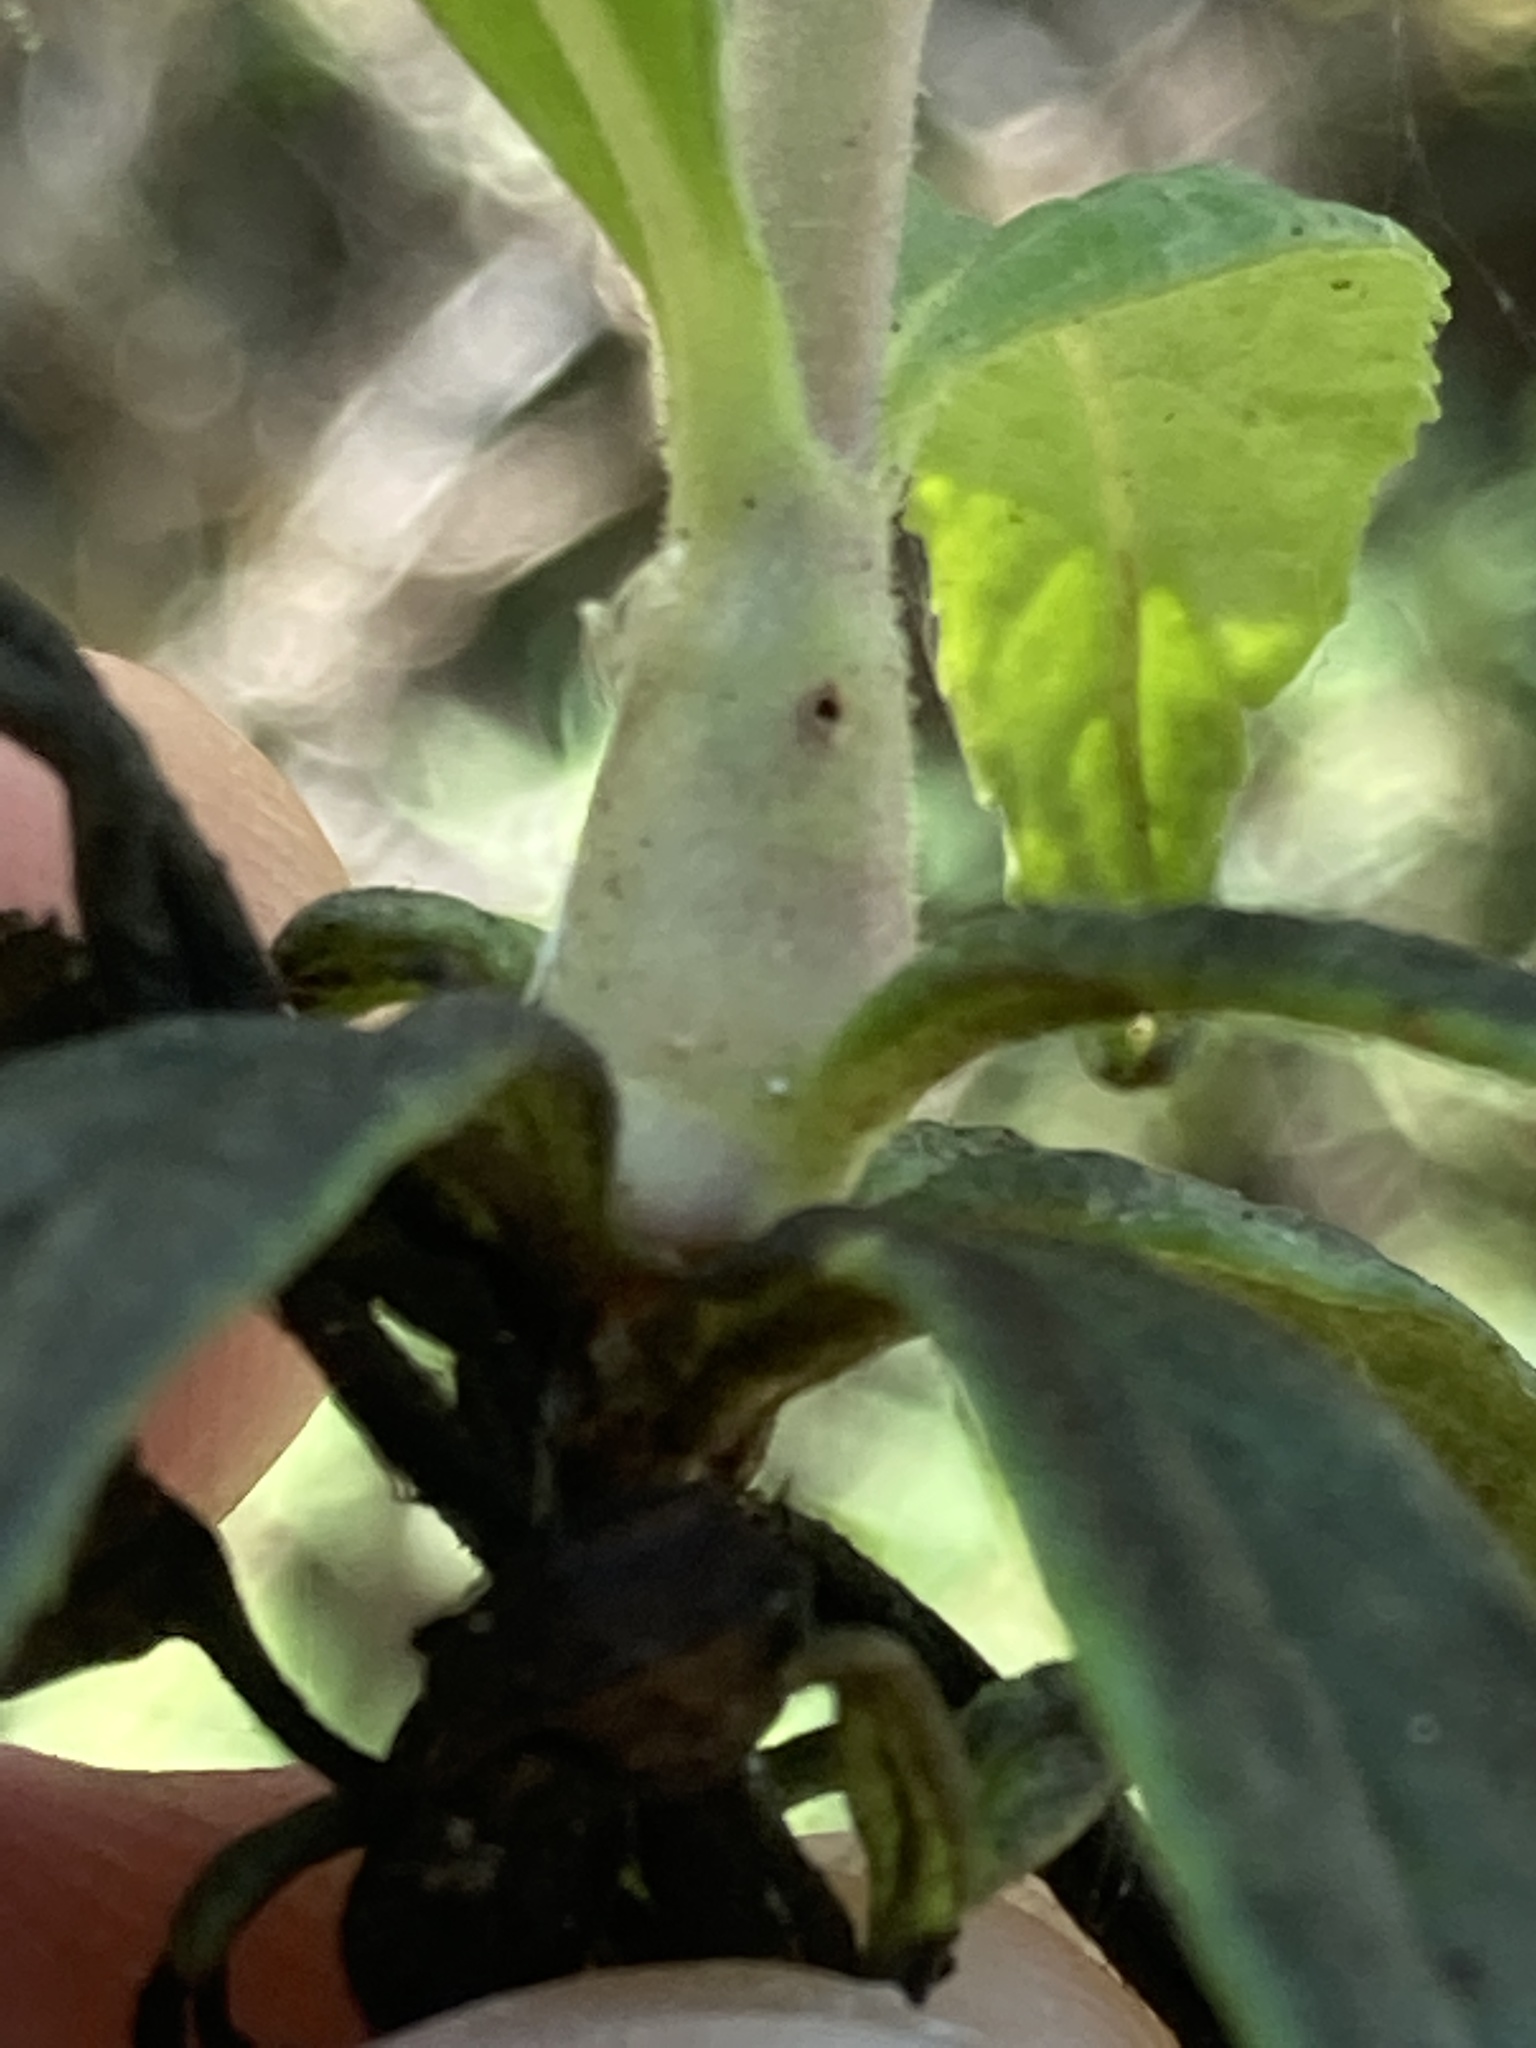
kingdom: Animalia
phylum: Arthropoda
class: Insecta
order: Diptera
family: Cecidomyiidae
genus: Neolasioptera
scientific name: Neolasioptera mimuli
